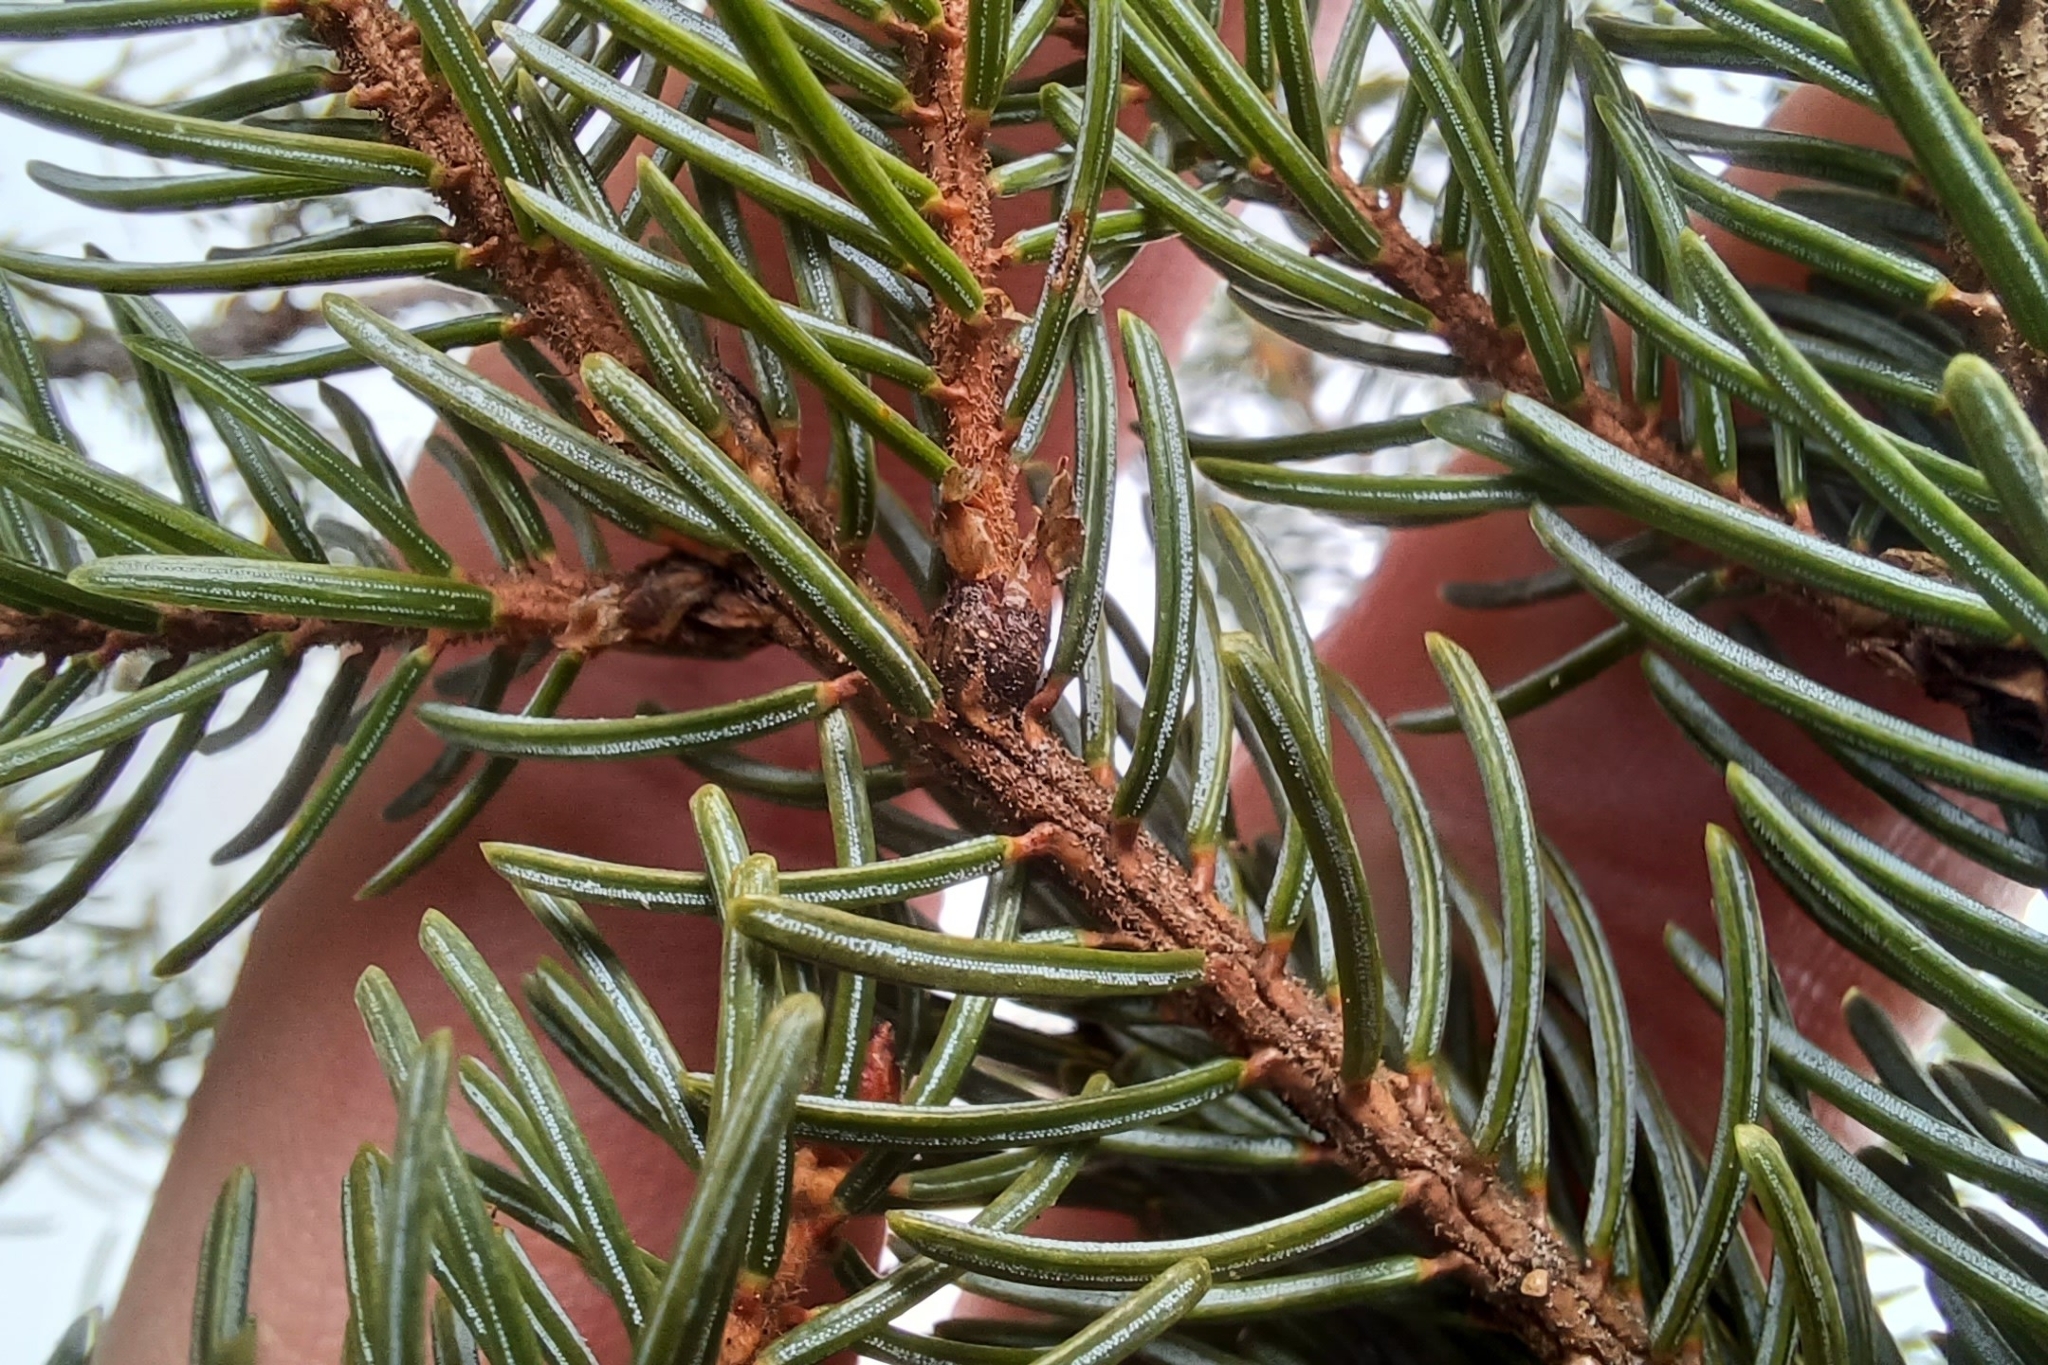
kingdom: Plantae
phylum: Tracheophyta
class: Pinopsida
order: Pinales
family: Pinaceae
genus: Picea
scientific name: Picea rubens
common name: Red spruce
